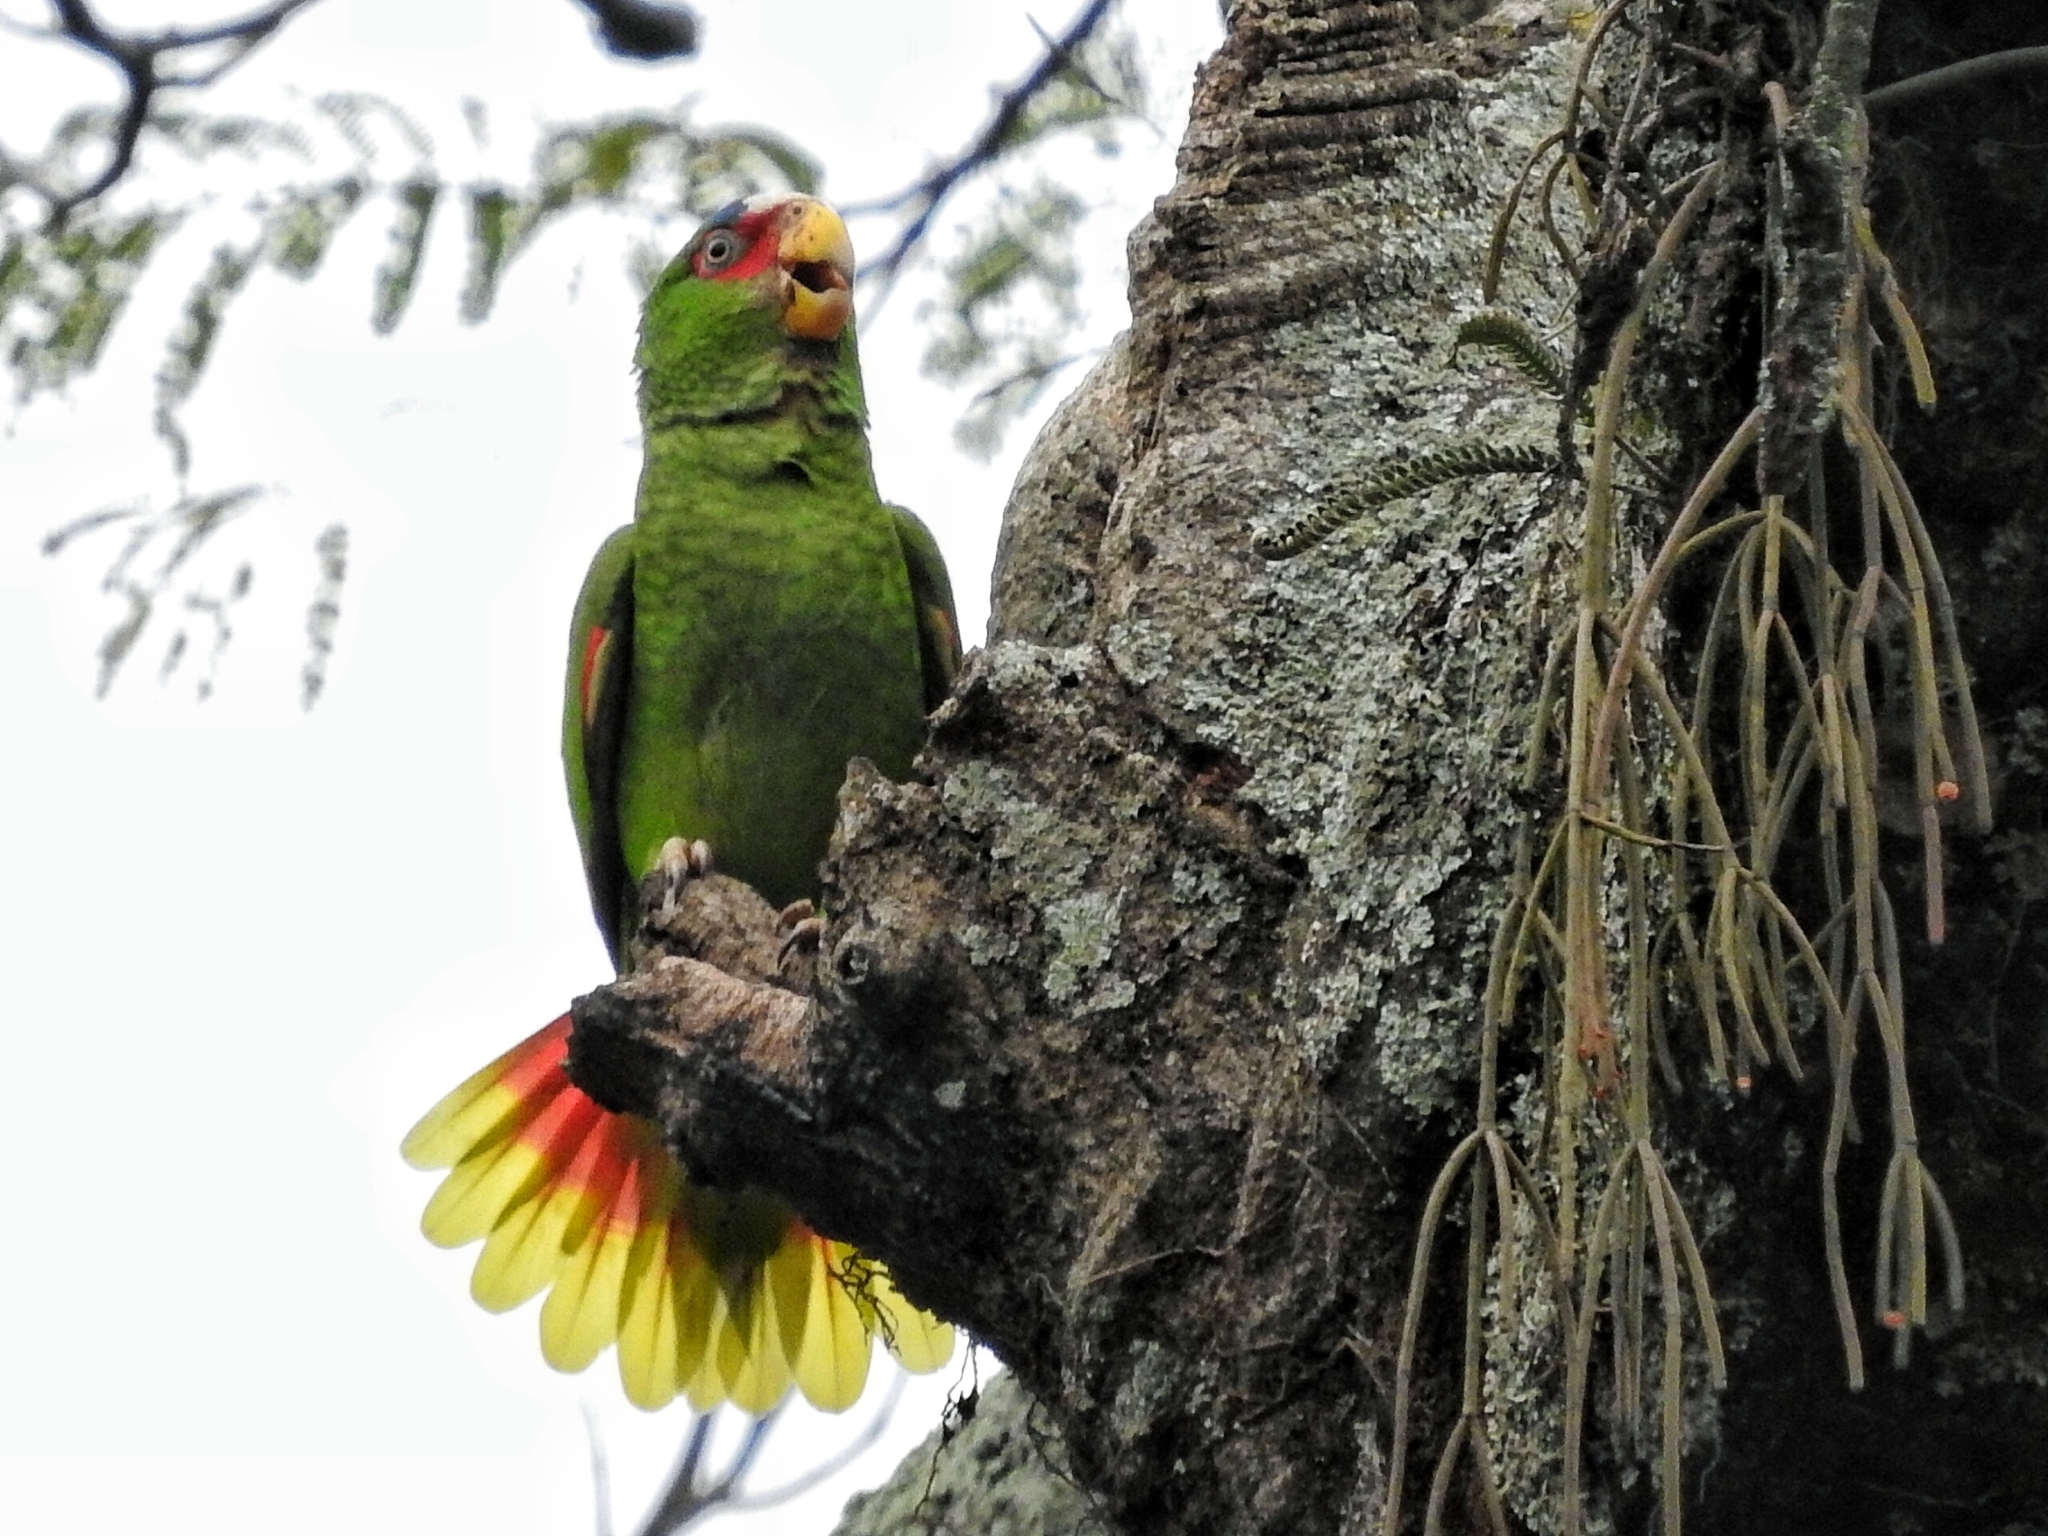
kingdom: Animalia
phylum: Chordata
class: Aves
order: Psittaciformes
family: Psittacidae
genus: Amazona
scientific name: Amazona albifrons
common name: White-fronted amazon
